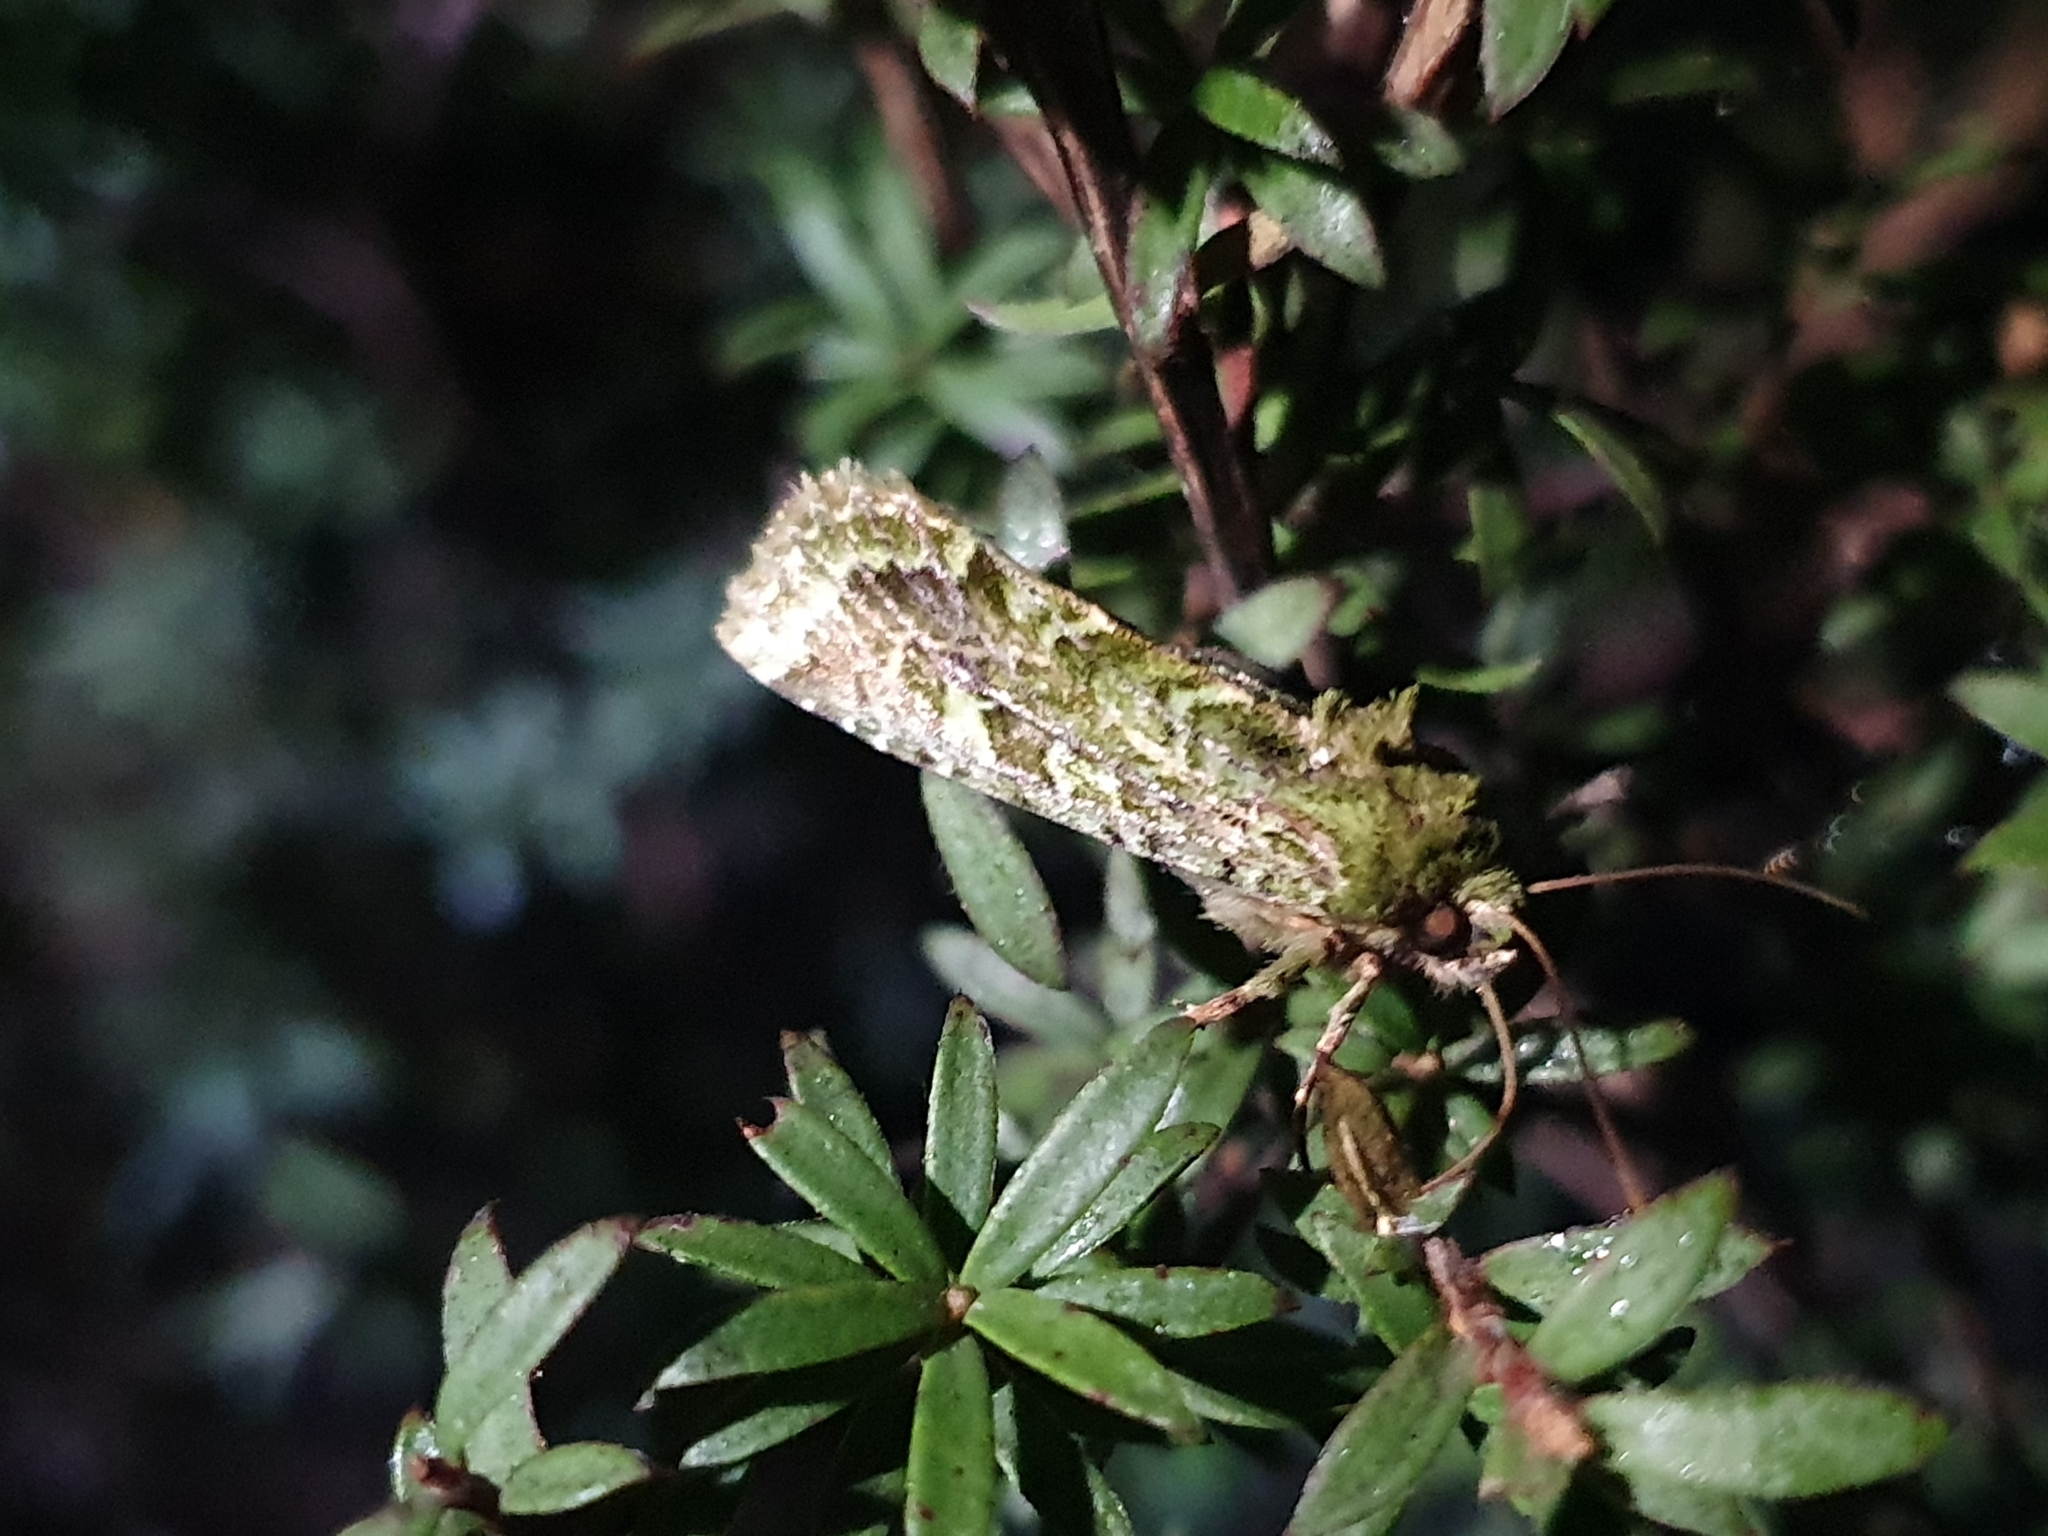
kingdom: Animalia
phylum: Arthropoda
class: Insecta
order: Lepidoptera
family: Noctuidae
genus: Feredayia
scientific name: Feredayia grammosa
